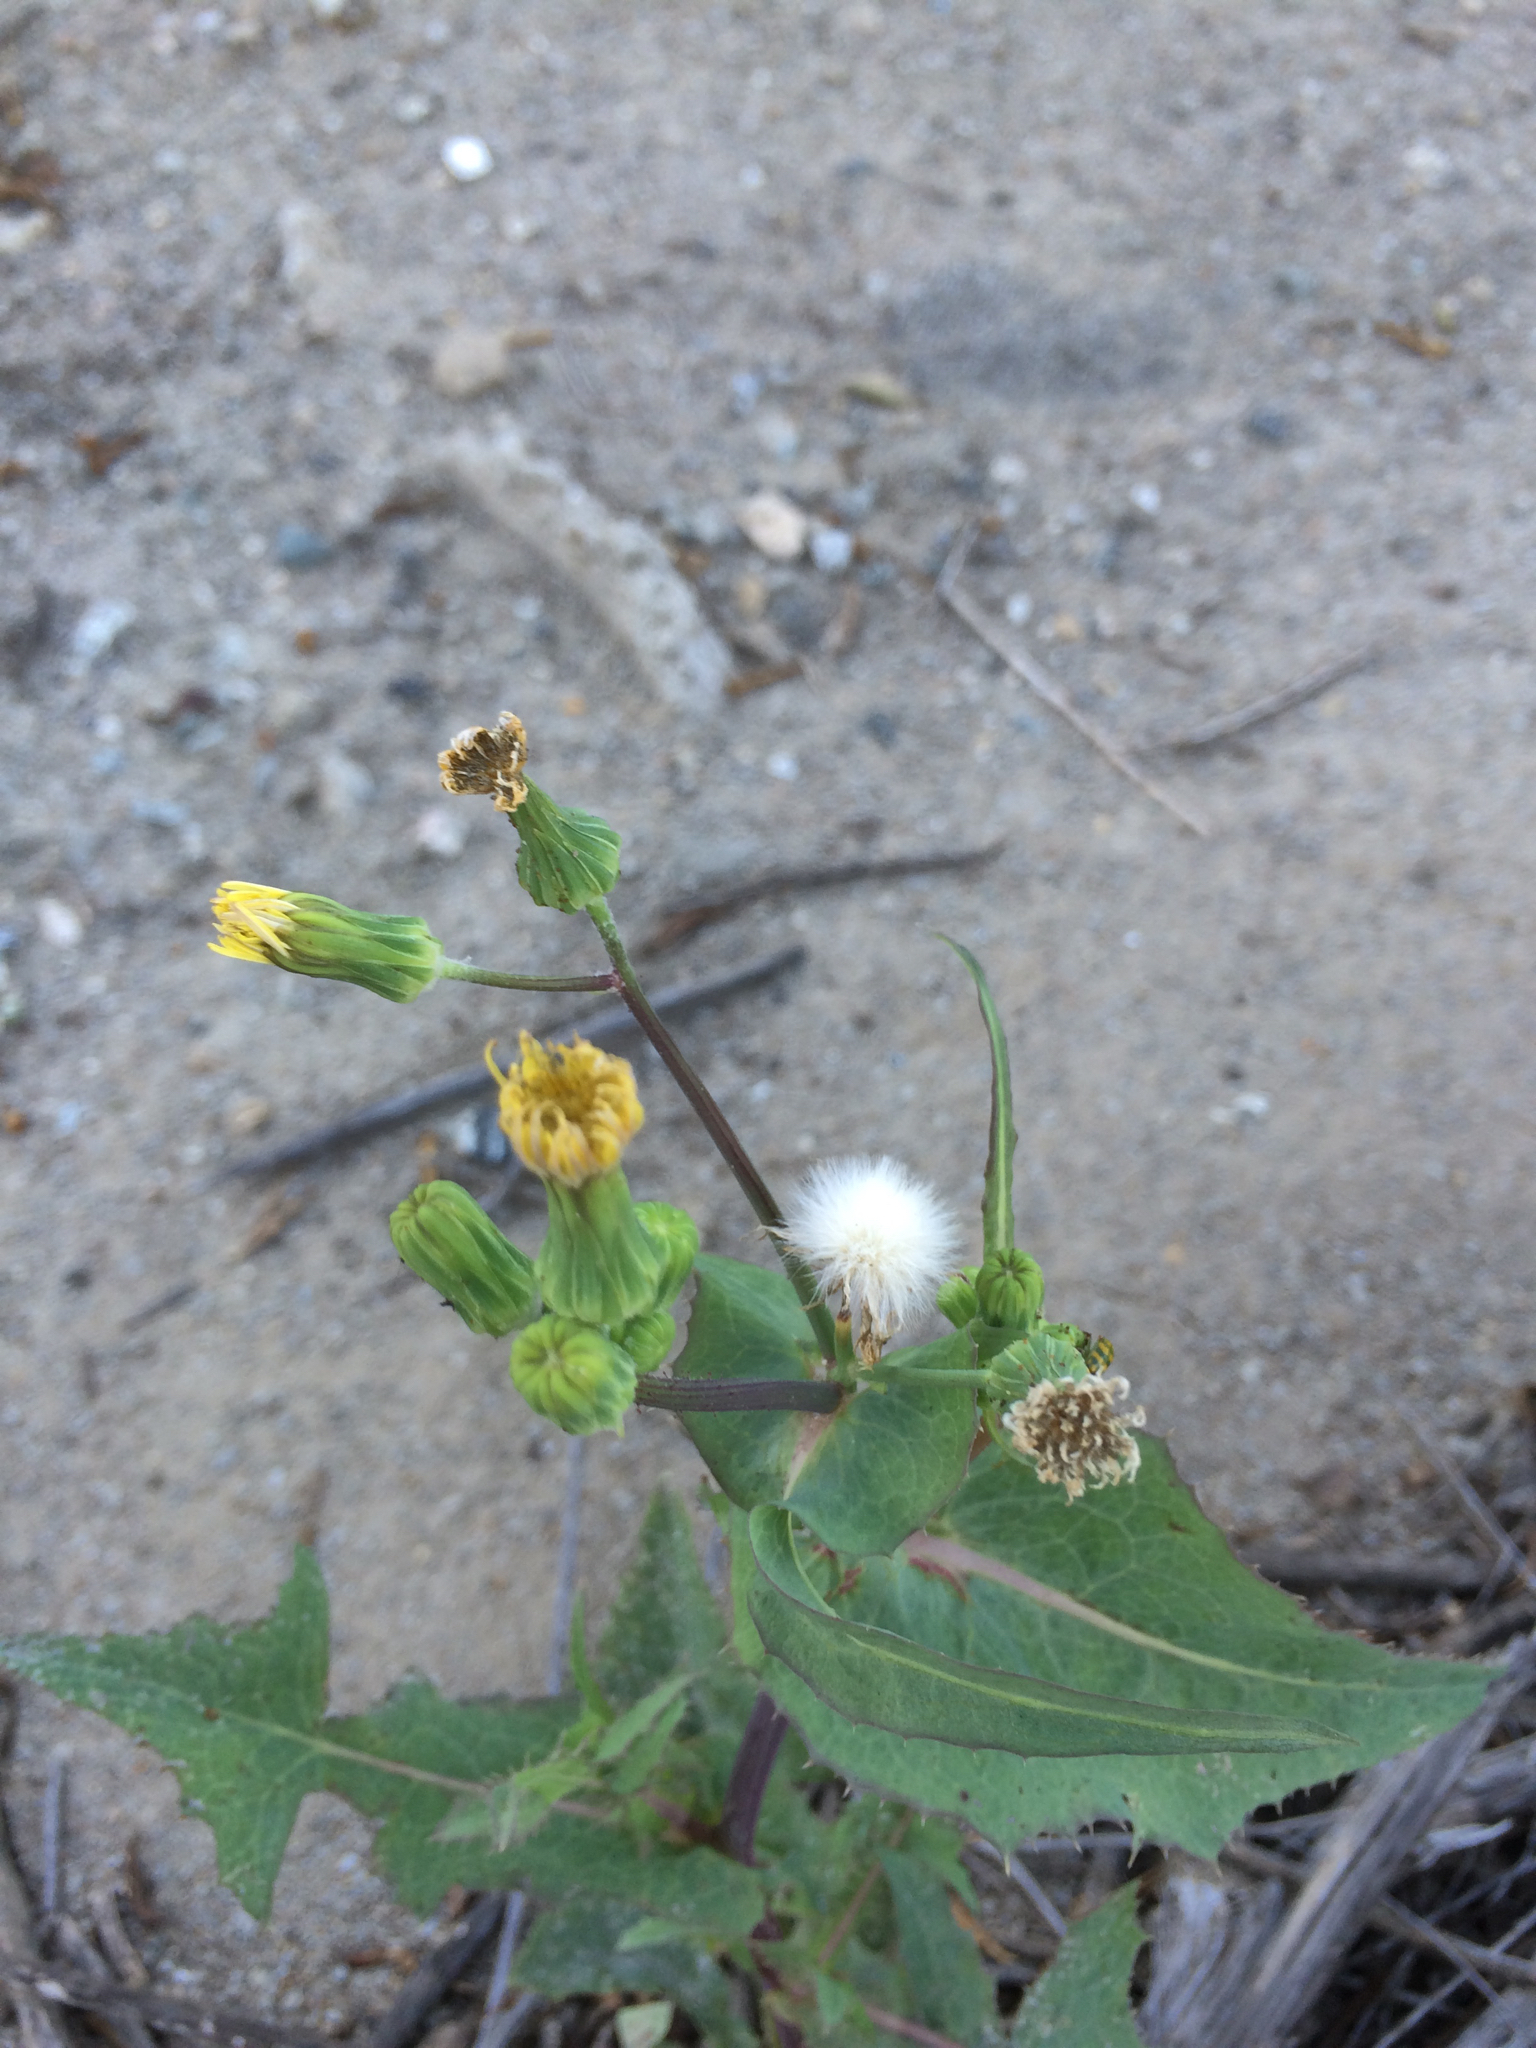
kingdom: Plantae
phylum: Tracheophyta
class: Magnoliopsida
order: Asterales
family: Asteraceae
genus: Sonchus
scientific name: Sonchus oleraceus
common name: Common sowthistle
